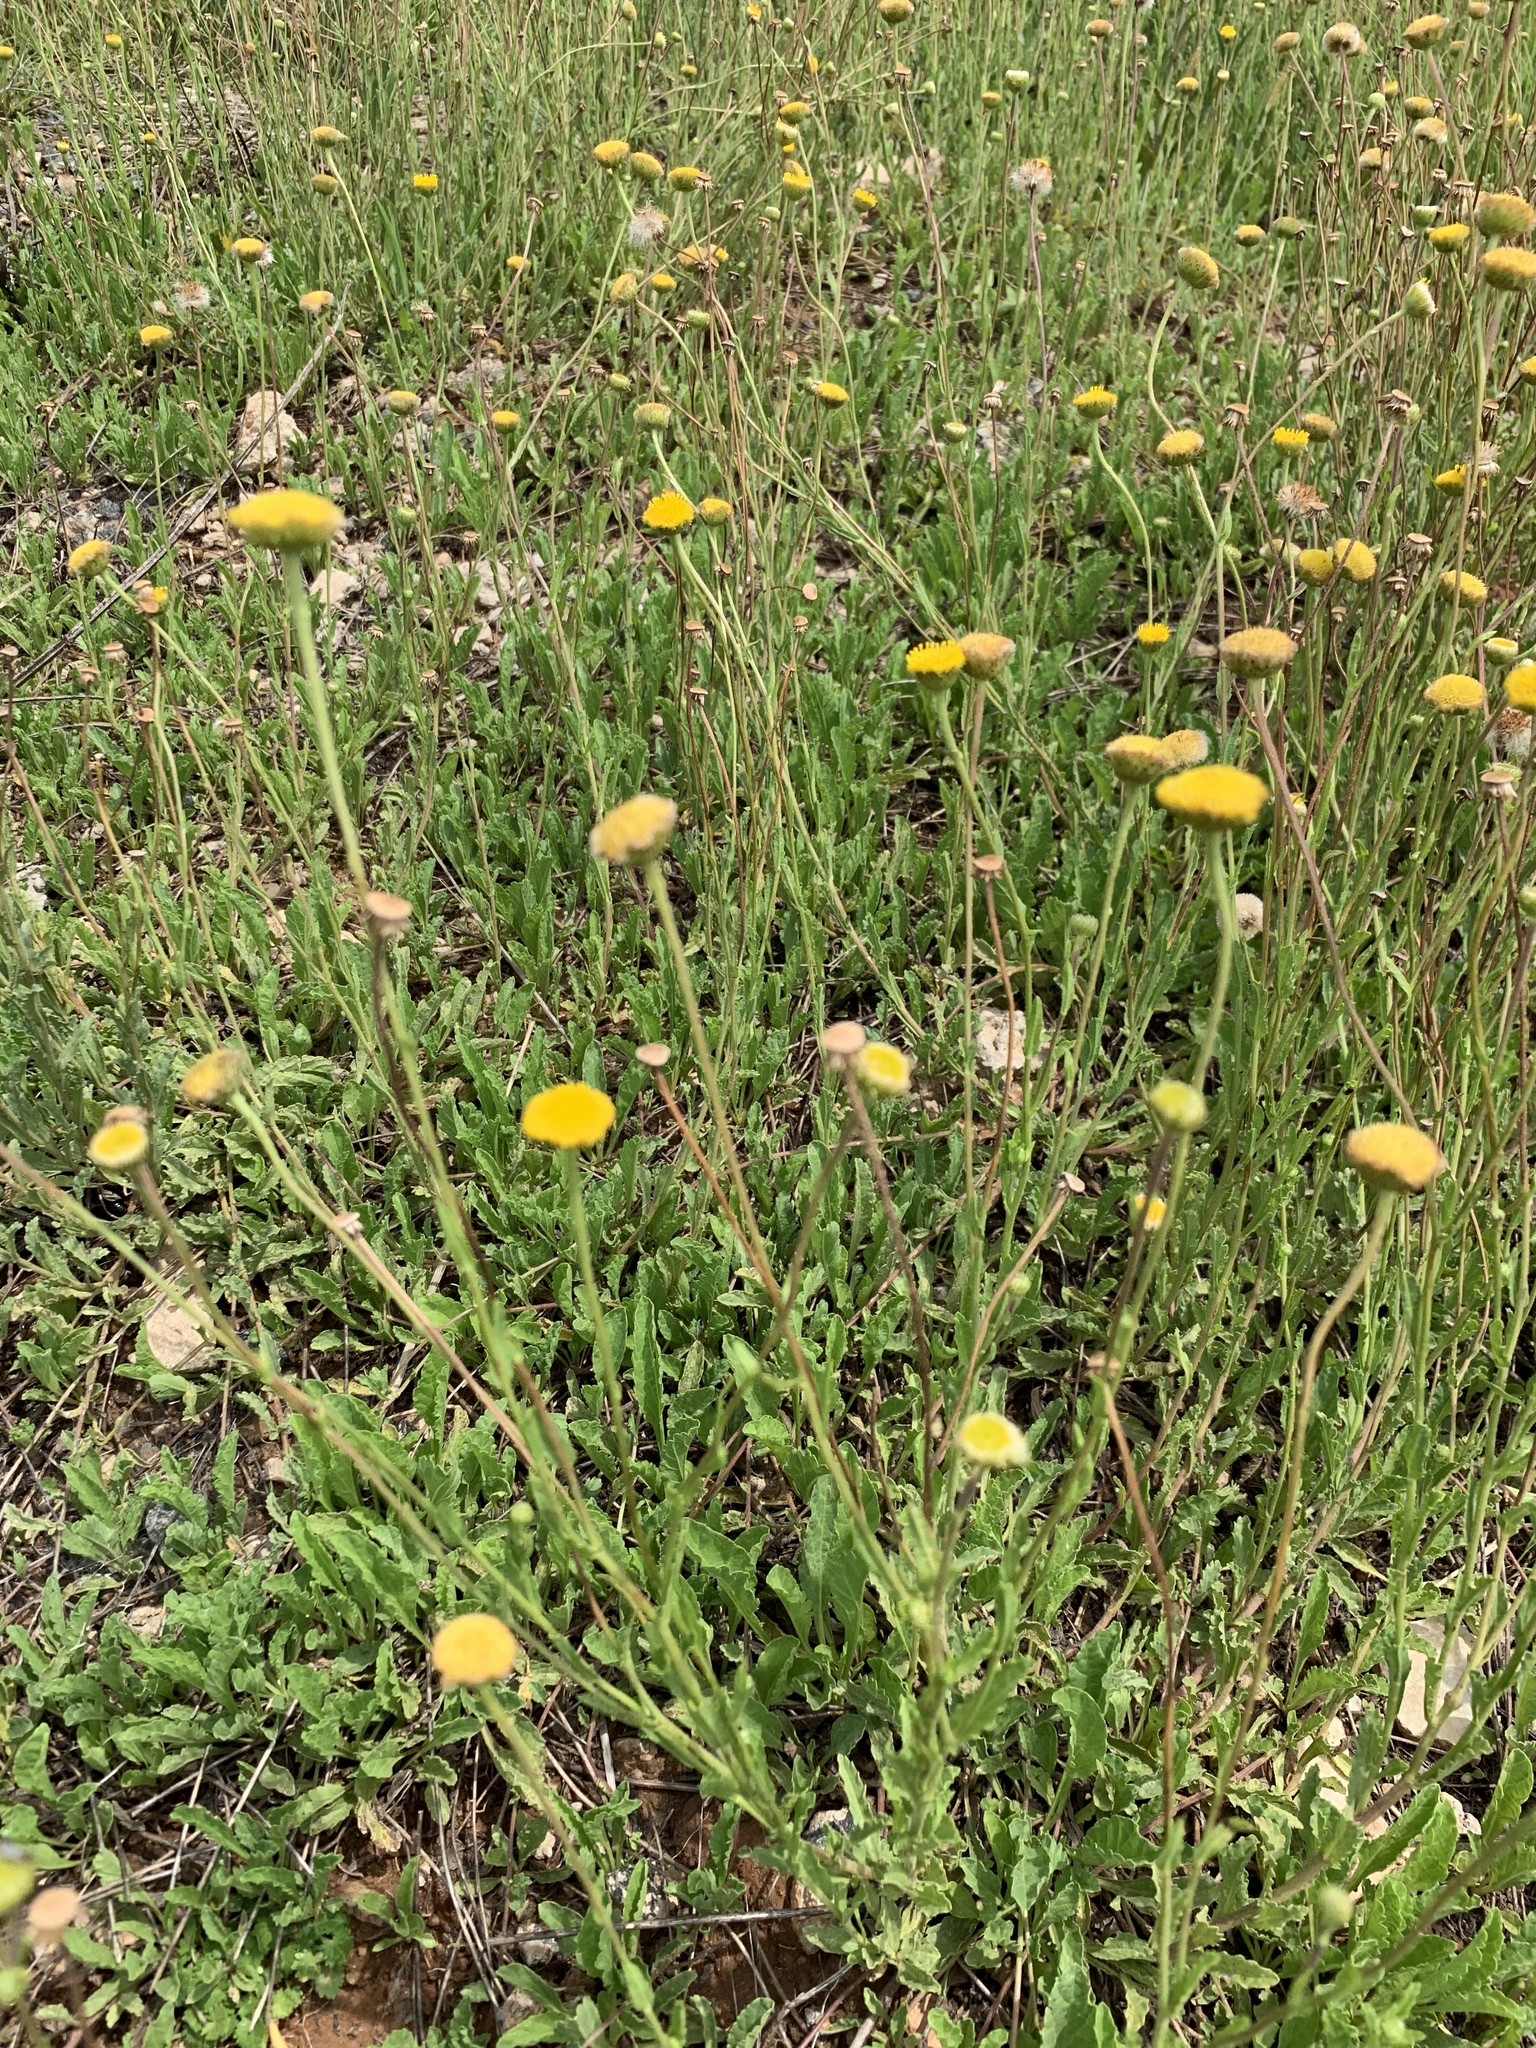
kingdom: Plantae
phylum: Tracheophyta
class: Magnoliopsida
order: Asterales
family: Asteraceae
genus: Nidorella
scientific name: Nidorella podocephala
